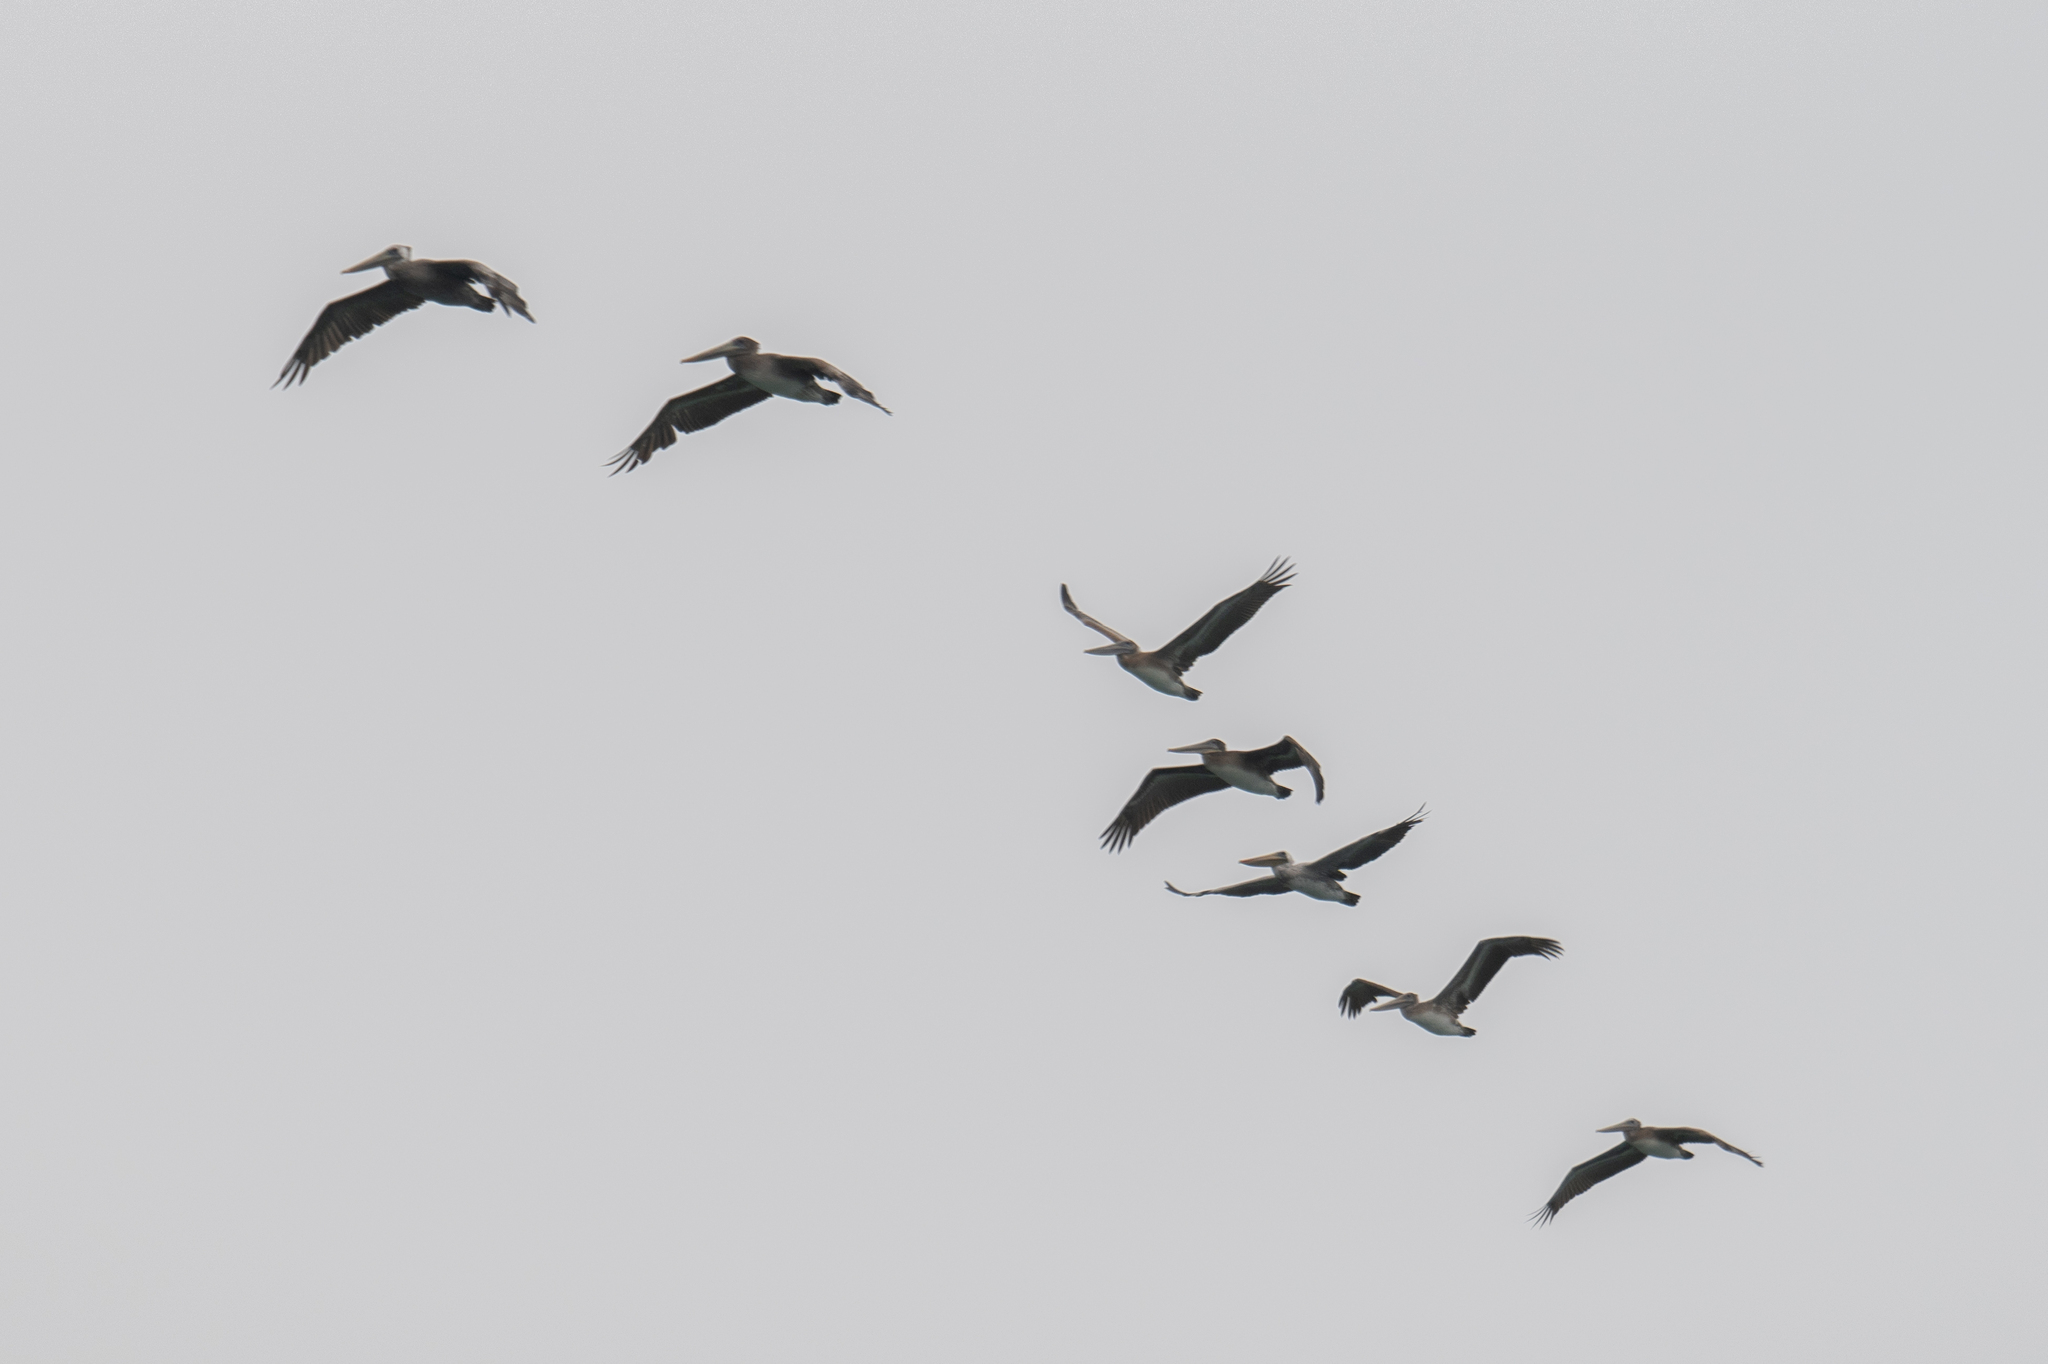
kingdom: Animalia
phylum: Chordata
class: Aves
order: Pelecaniformes
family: Pelecanidae
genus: Pelecanus
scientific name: Pelecanus occidentalis
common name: Brown pelican
